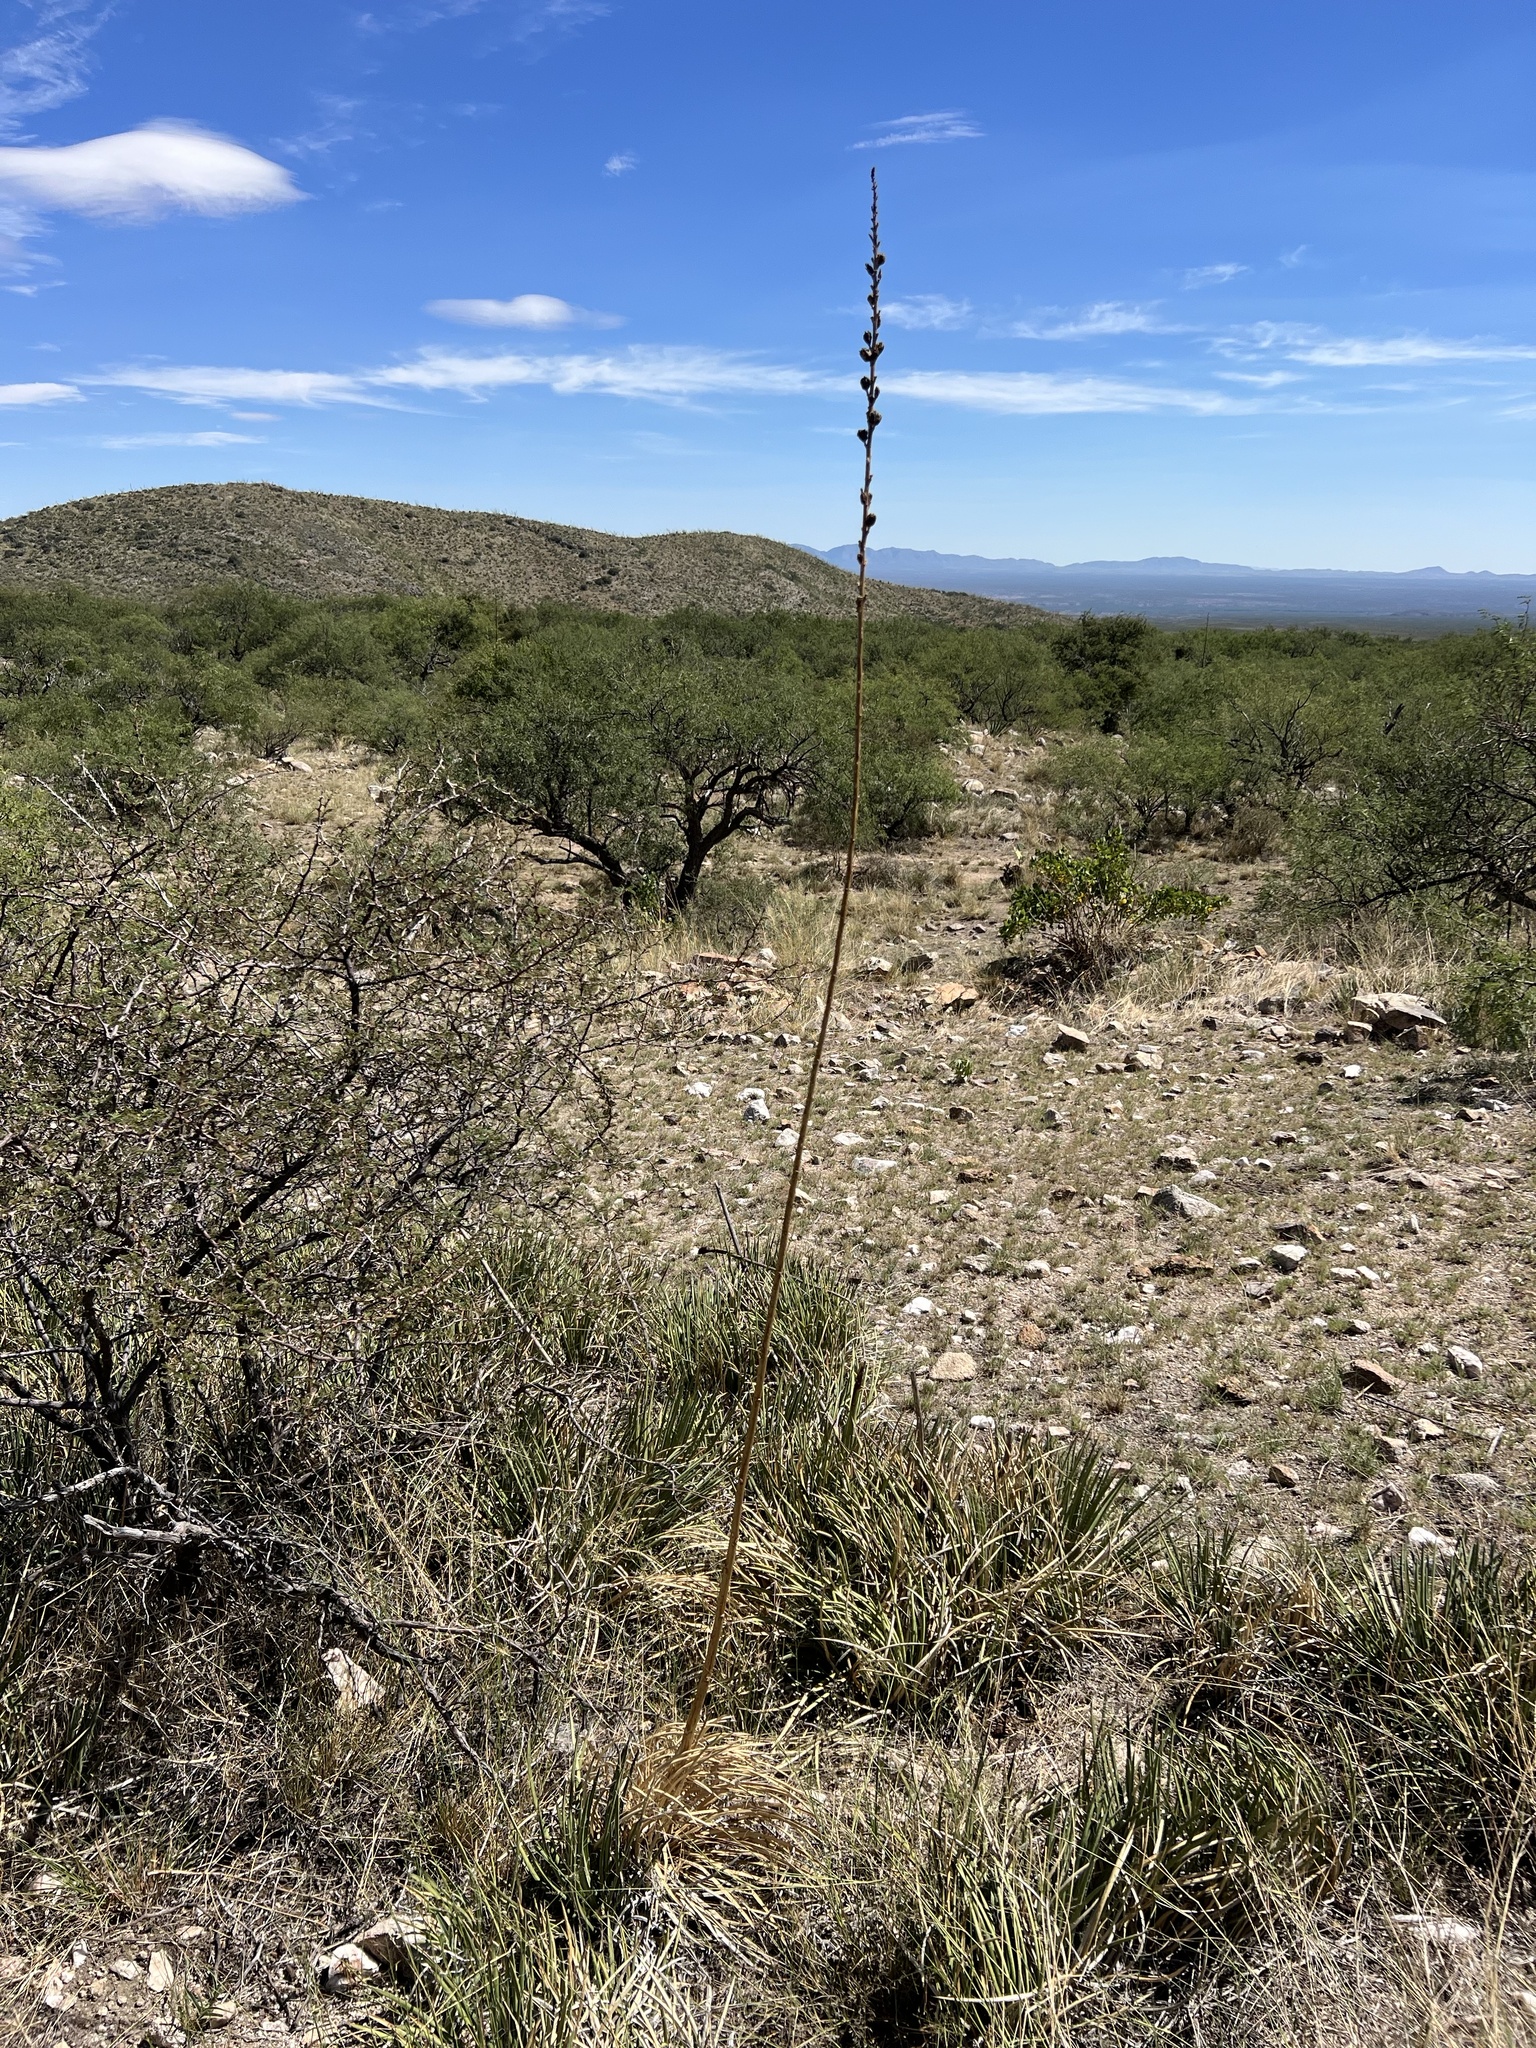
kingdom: Plantae
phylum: Tracheophyta
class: Liliopsida
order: Asparagales
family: Asparagaceae
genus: Agave
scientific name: Agave schottii
